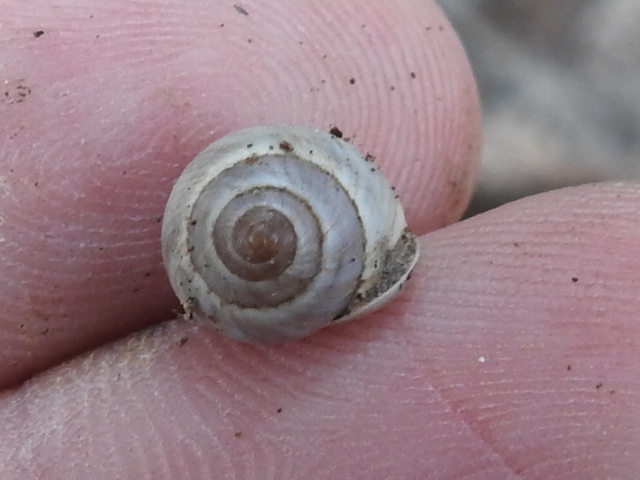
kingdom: Animalia
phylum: Mollusca
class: Gastropoda
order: Cycloneritida
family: Helicinidae
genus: Helicina
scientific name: Helicina orbiculata
